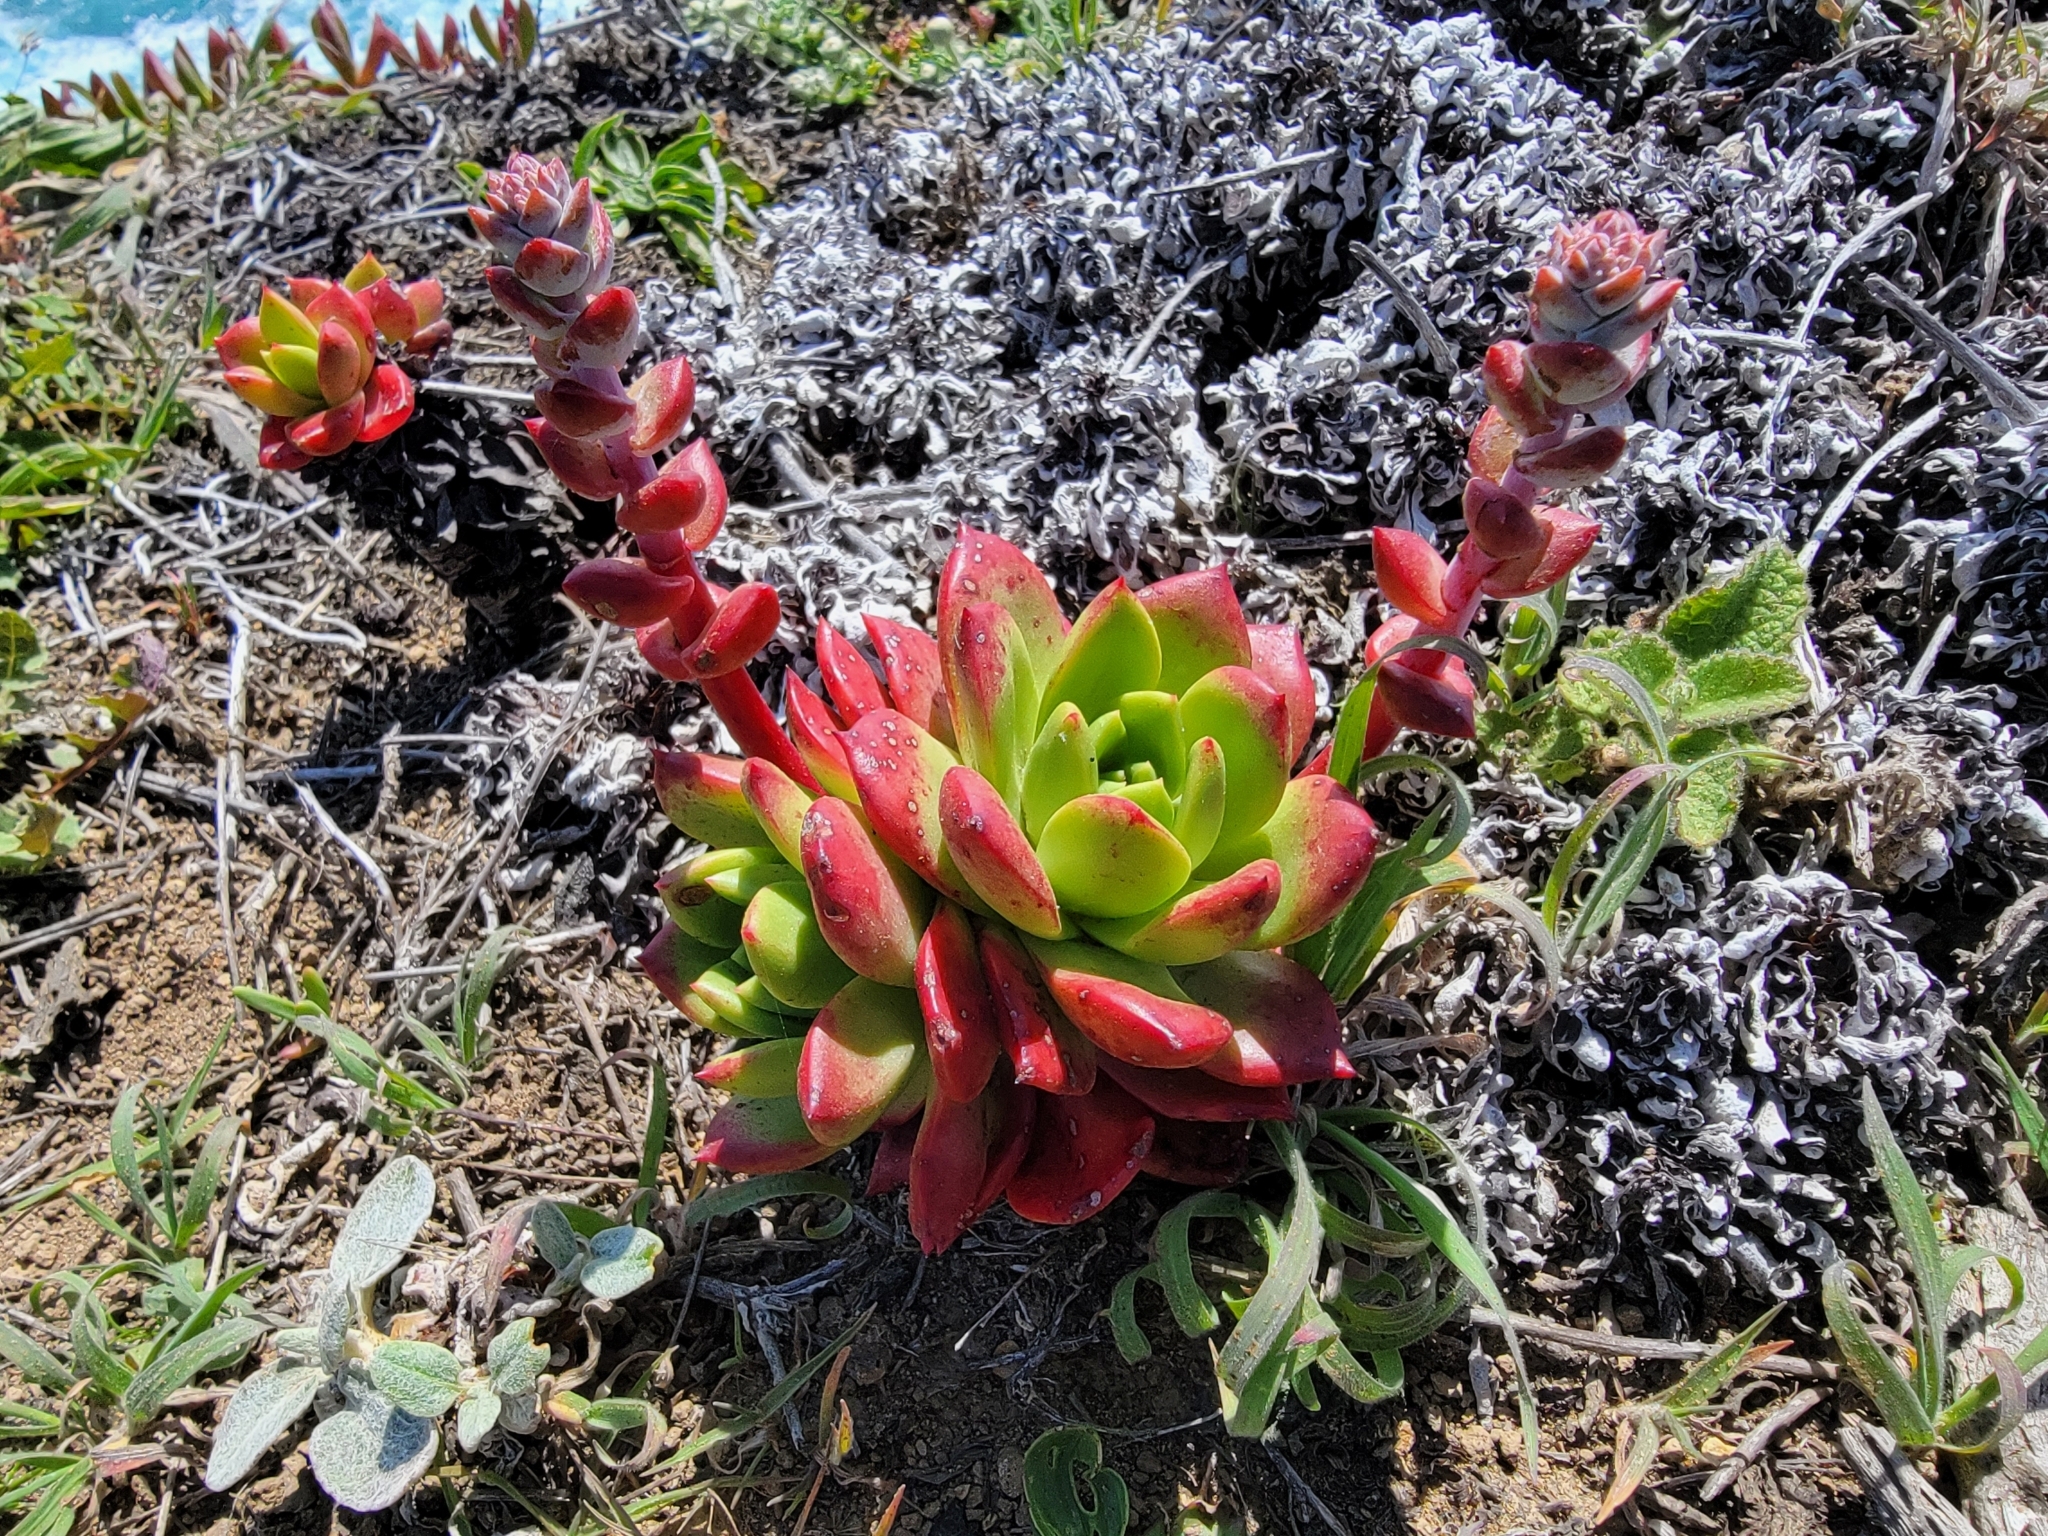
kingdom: Plantae
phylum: Tracheophyta
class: Magnoliopsida
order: Saxifragales
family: Crassulaceae
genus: Dudleya
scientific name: Dudleya farinosa
